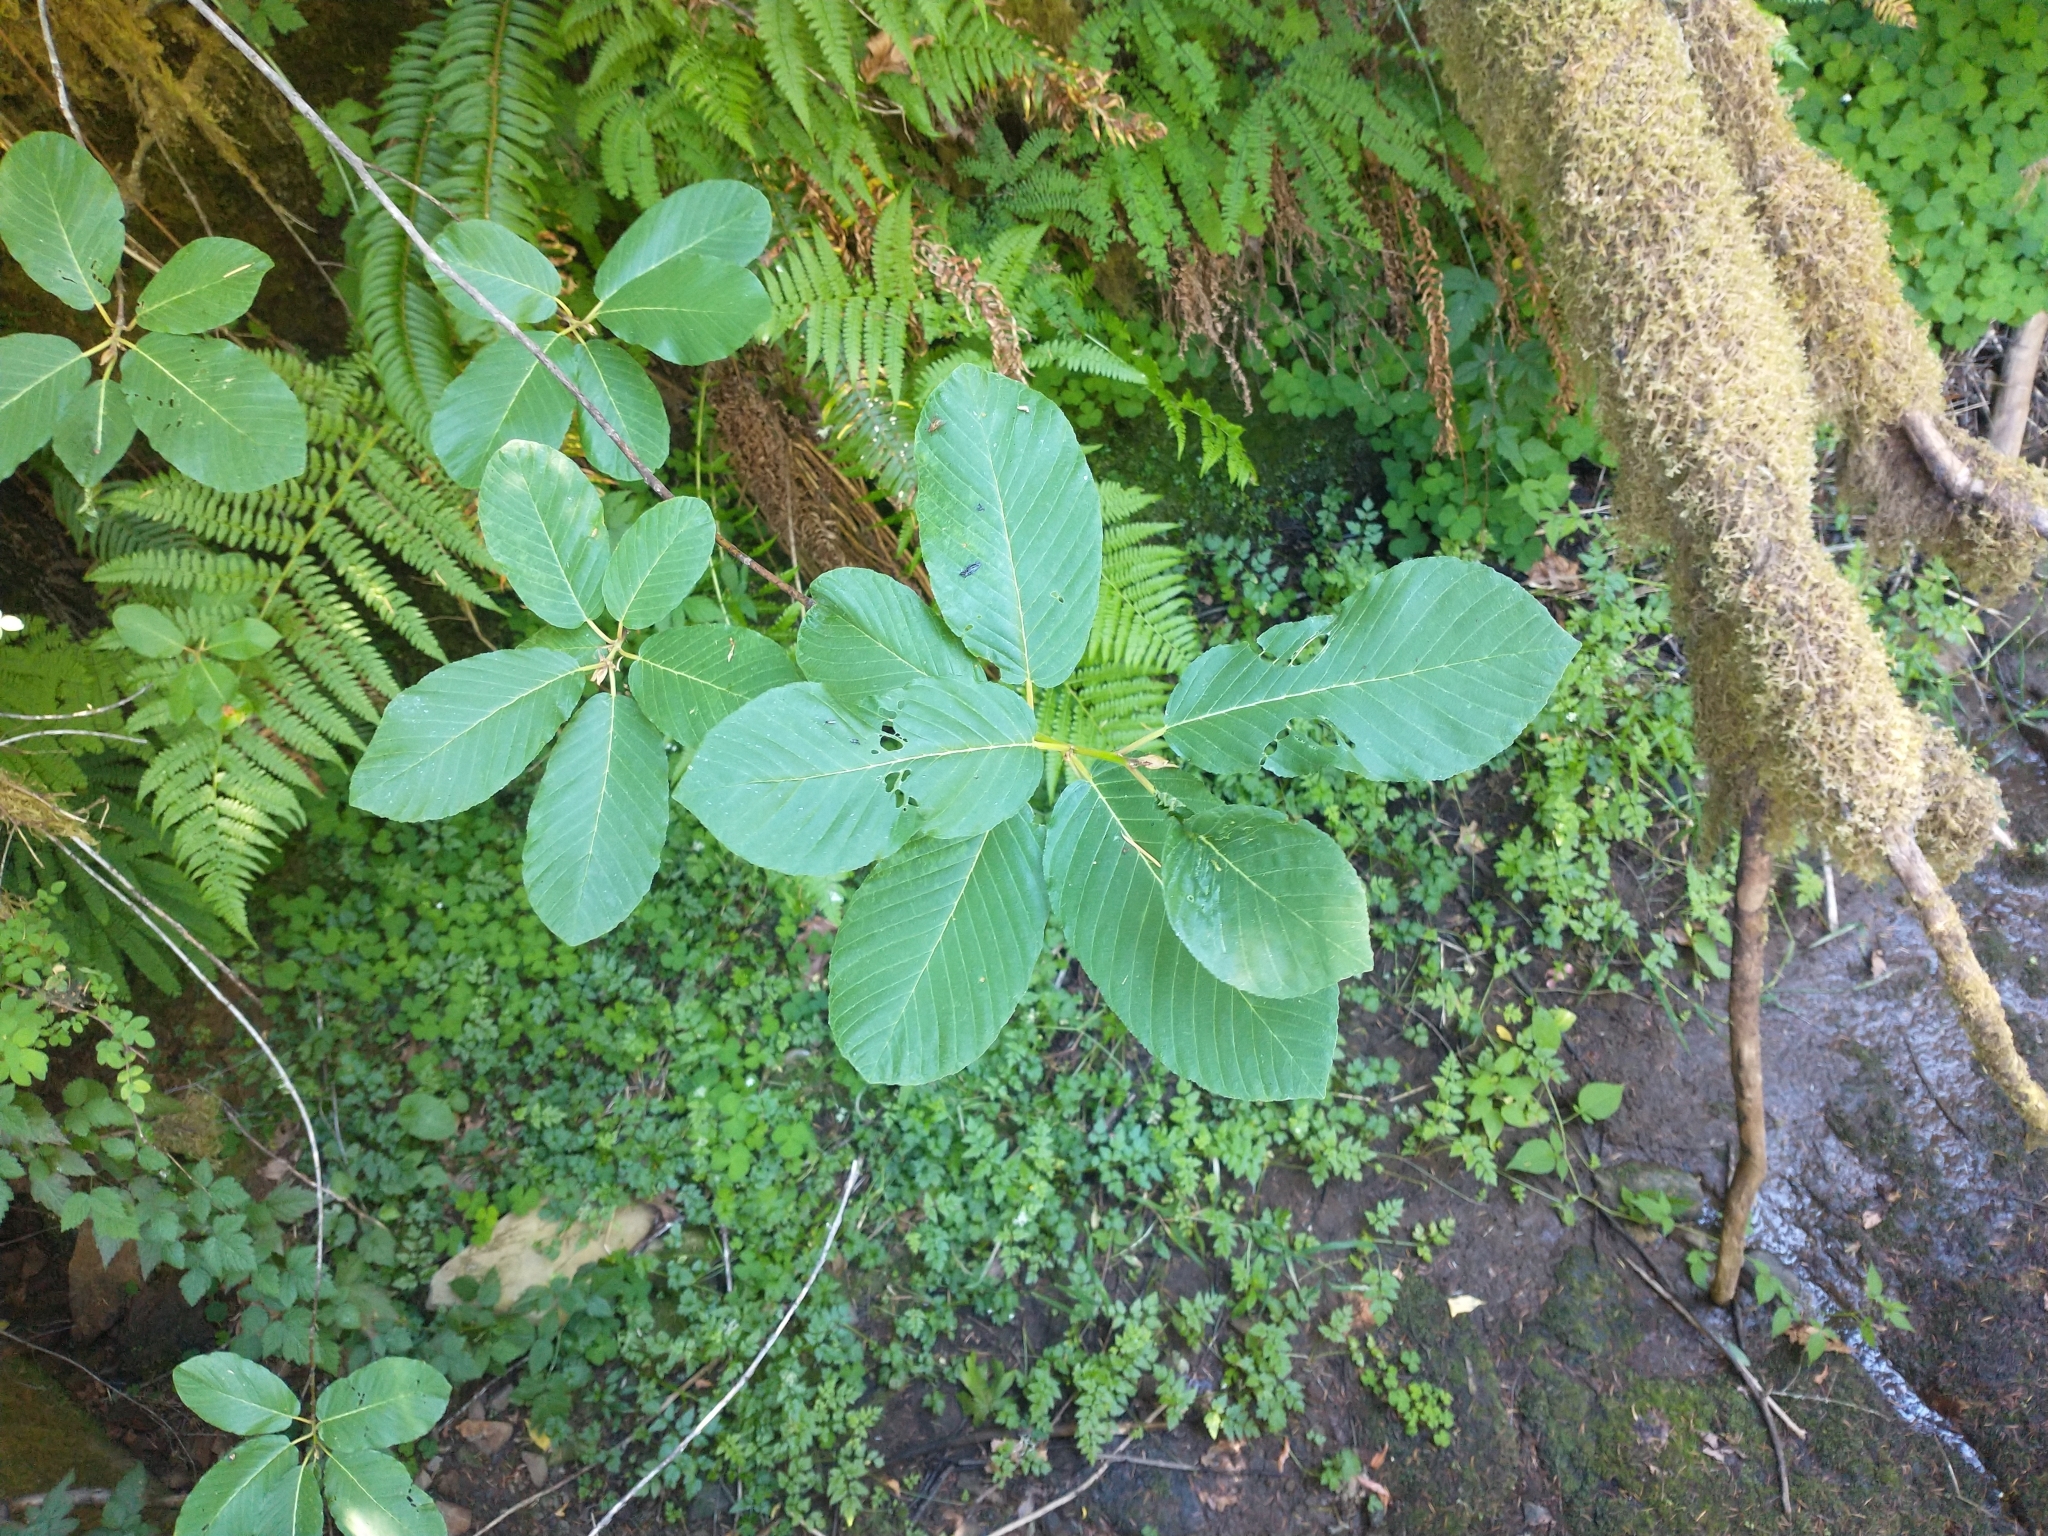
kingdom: Plantae
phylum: Tracheophyta
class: Magnoliopsida
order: Rosales
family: Rhamnaceae
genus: Frangula
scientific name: Frangula purshiana
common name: Cascara buckthorn
